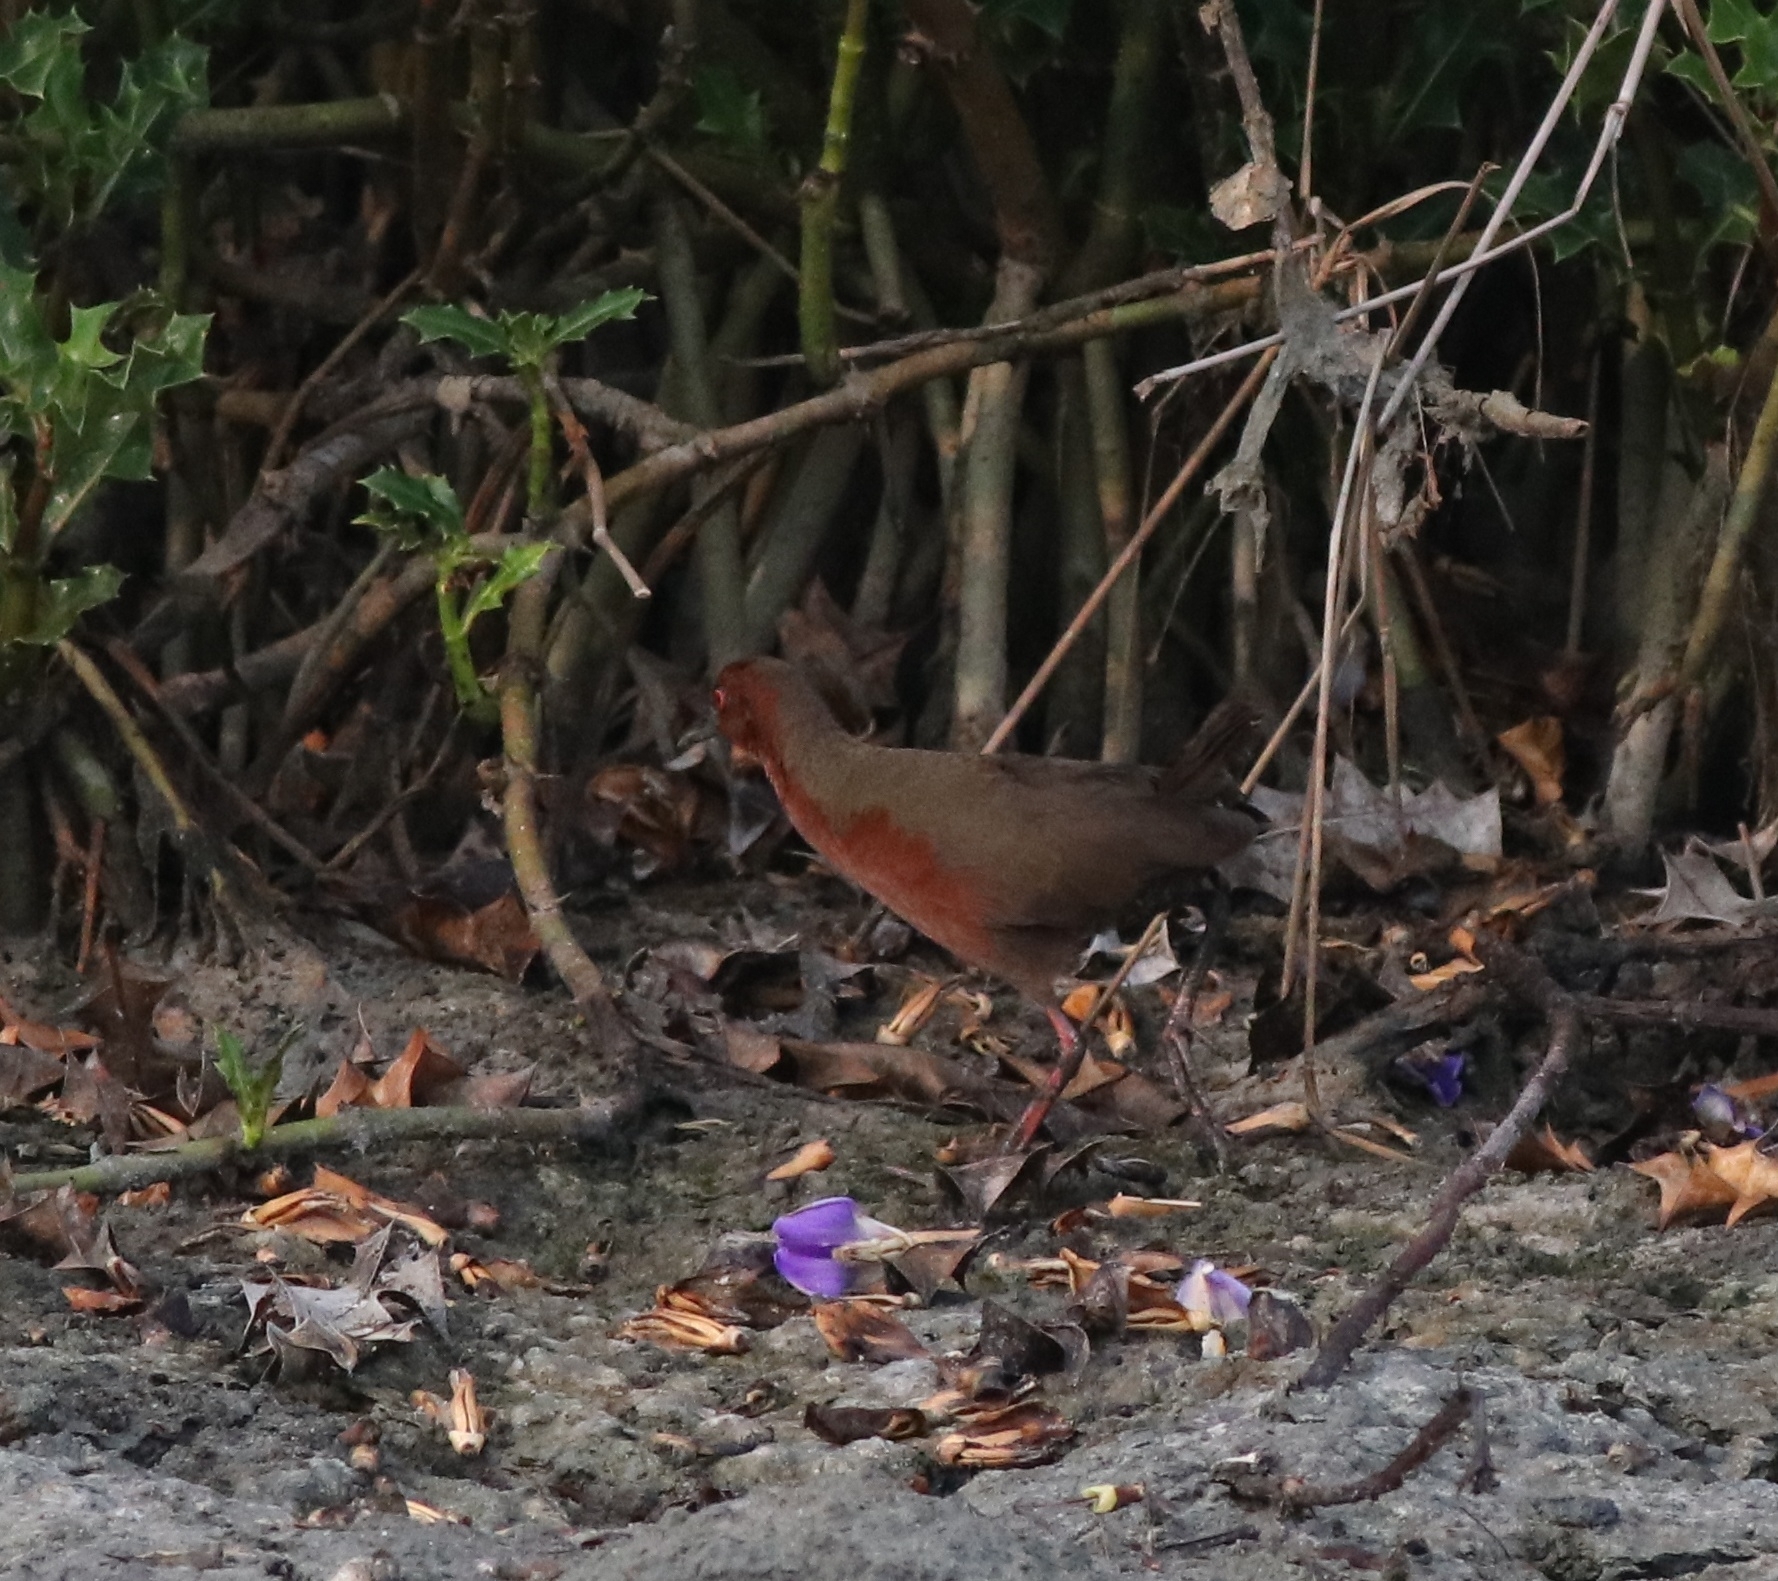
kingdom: Animalia
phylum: Chordata
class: Aves
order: Gruiformes
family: Rallidae
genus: Porzana
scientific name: Porzana fusca
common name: Ruddy-breasted crake
